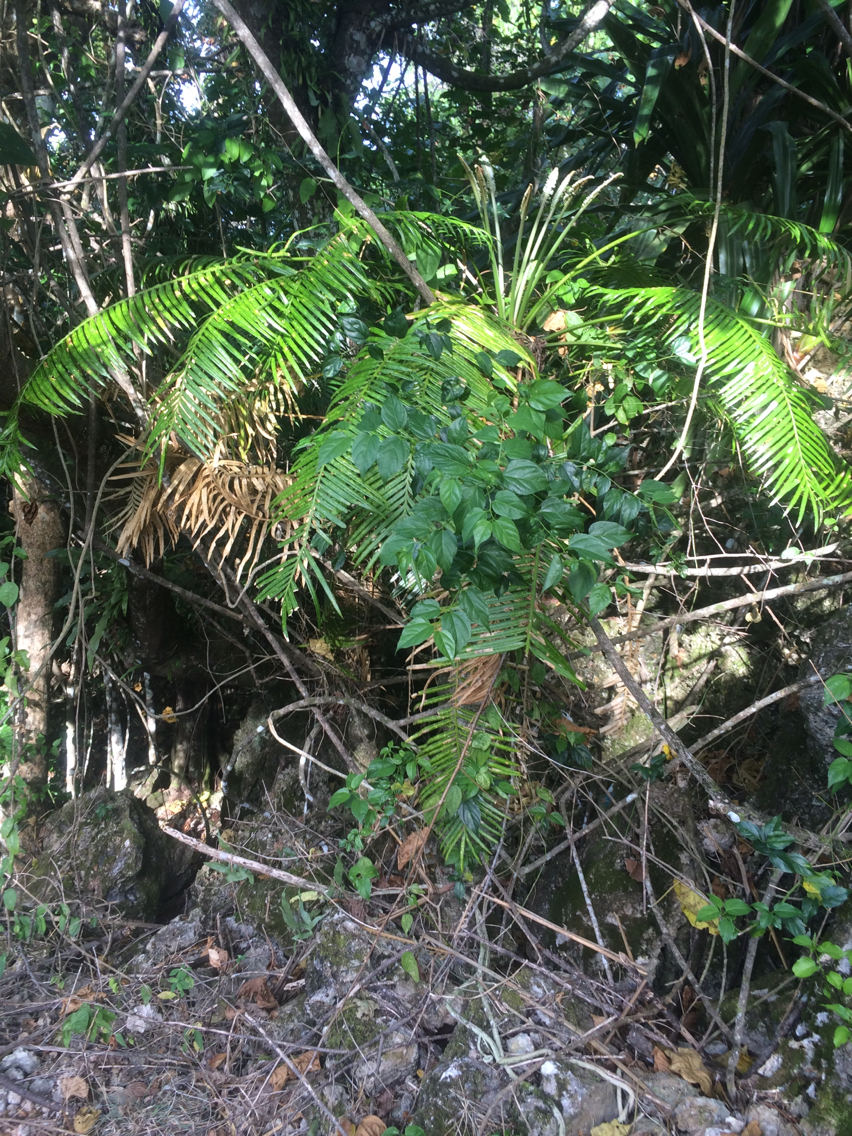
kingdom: Plantae
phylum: Tracheophyta
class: Cycadopsida
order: Cycadales
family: Cycadaceae
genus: Cycas
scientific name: Cycas micronesica
